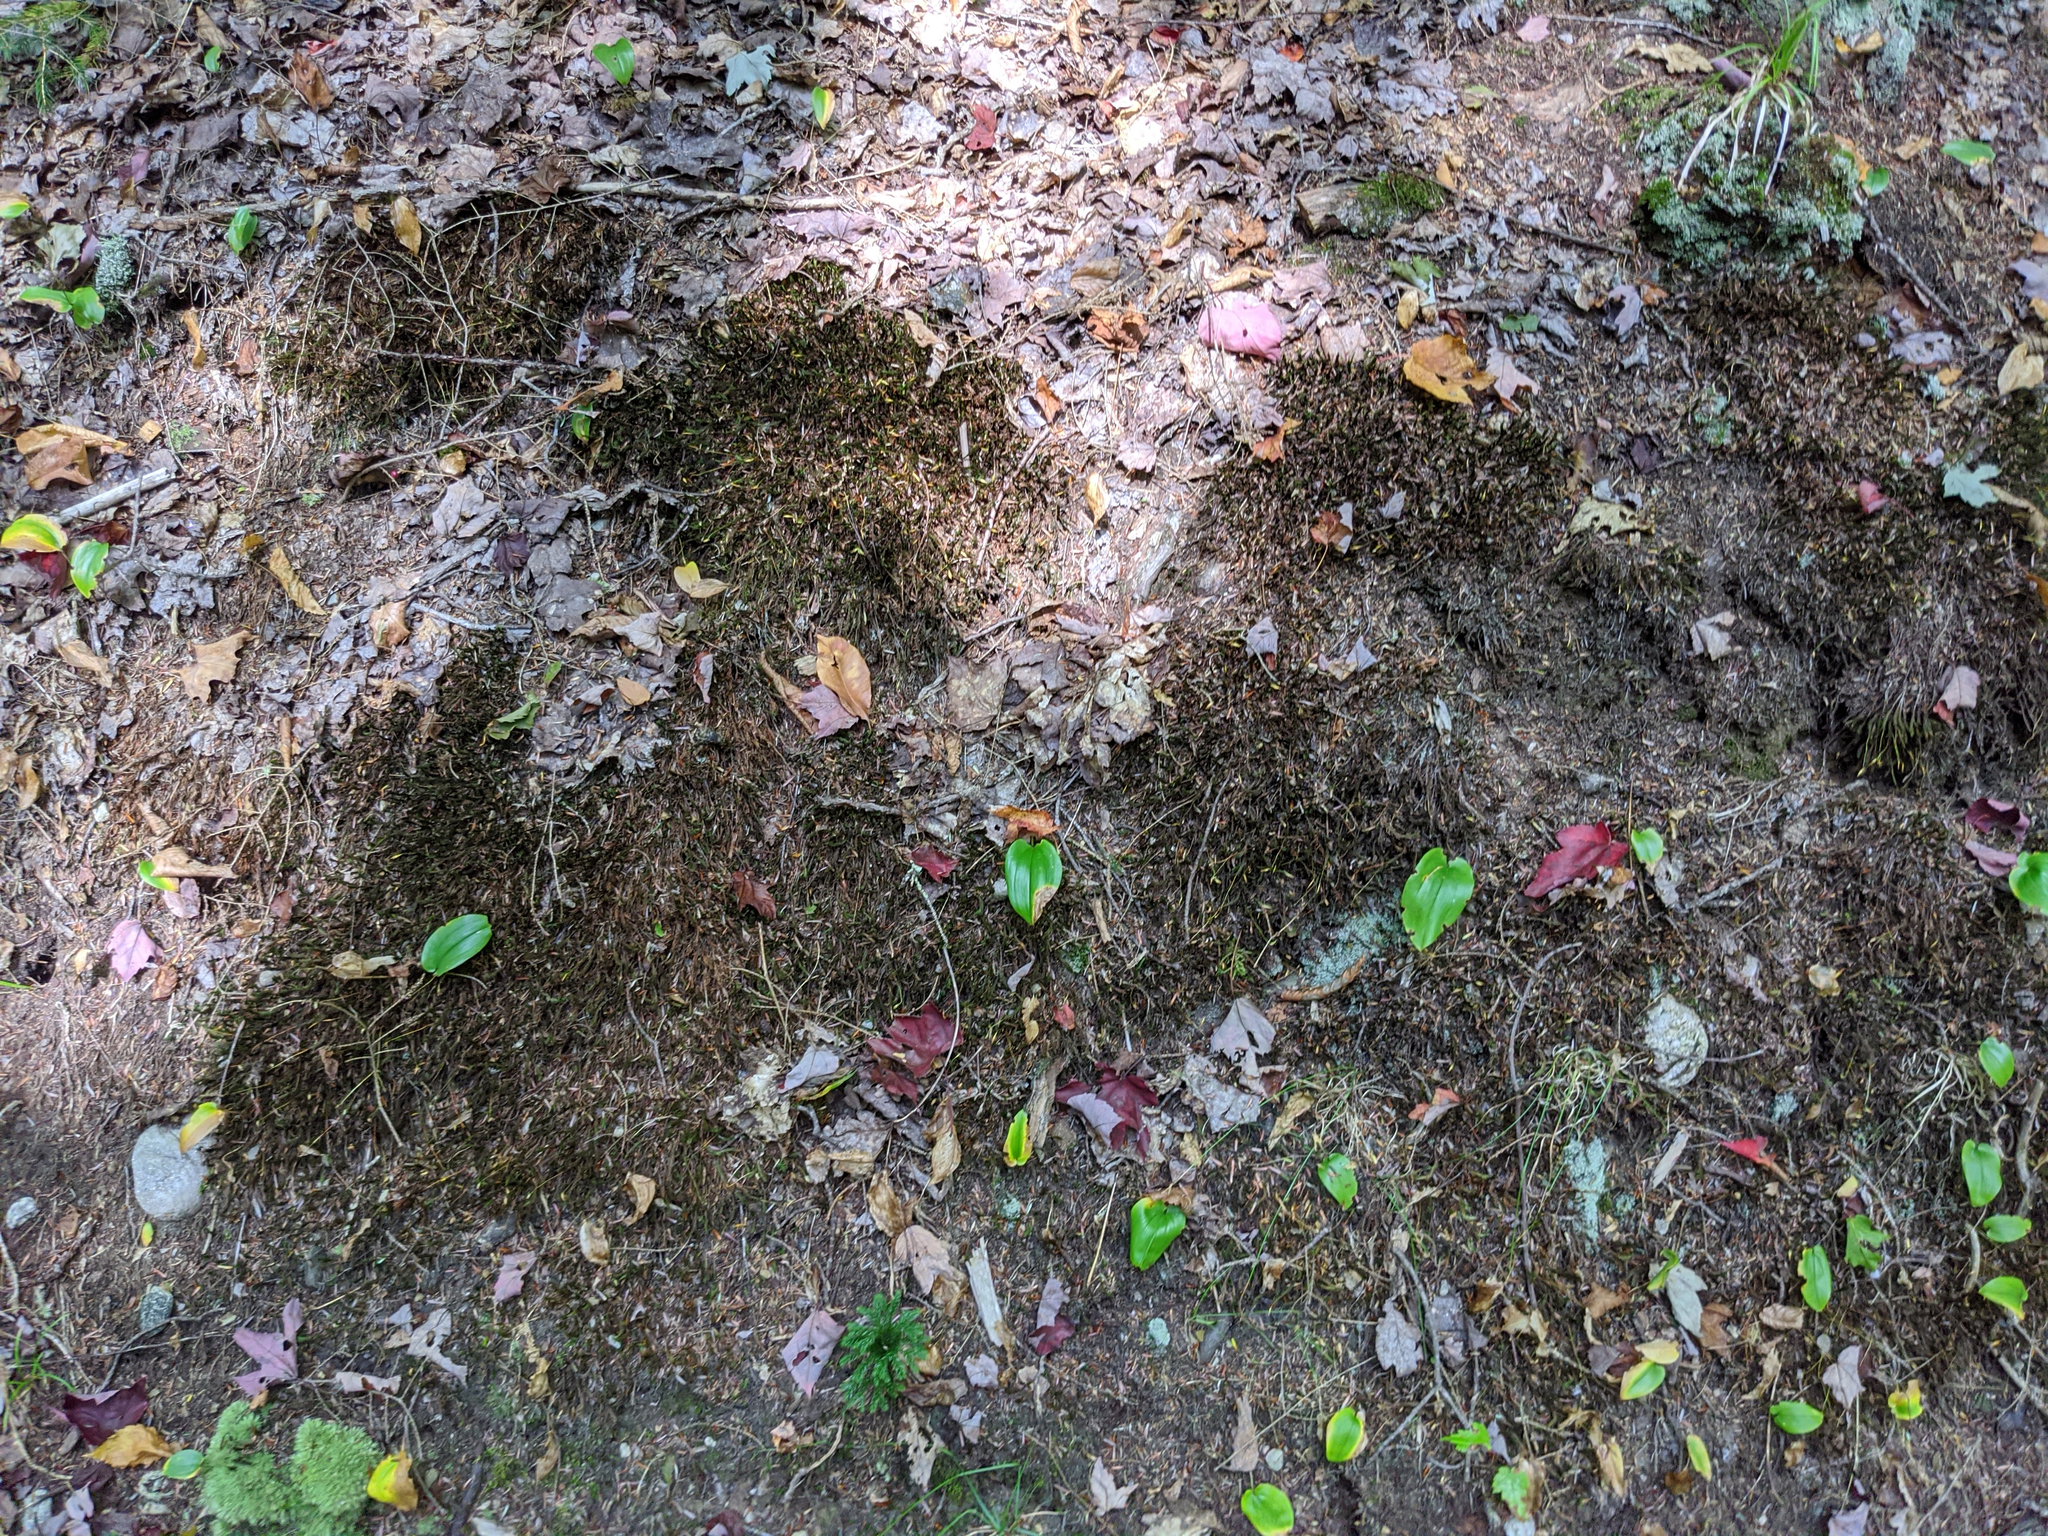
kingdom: Plantae
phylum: Tracheophyta
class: Liliopsida
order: Asparagales
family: Asparagaceae
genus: Maianthemum
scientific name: Maianthemum canadense
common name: False lily-of-the-valley
